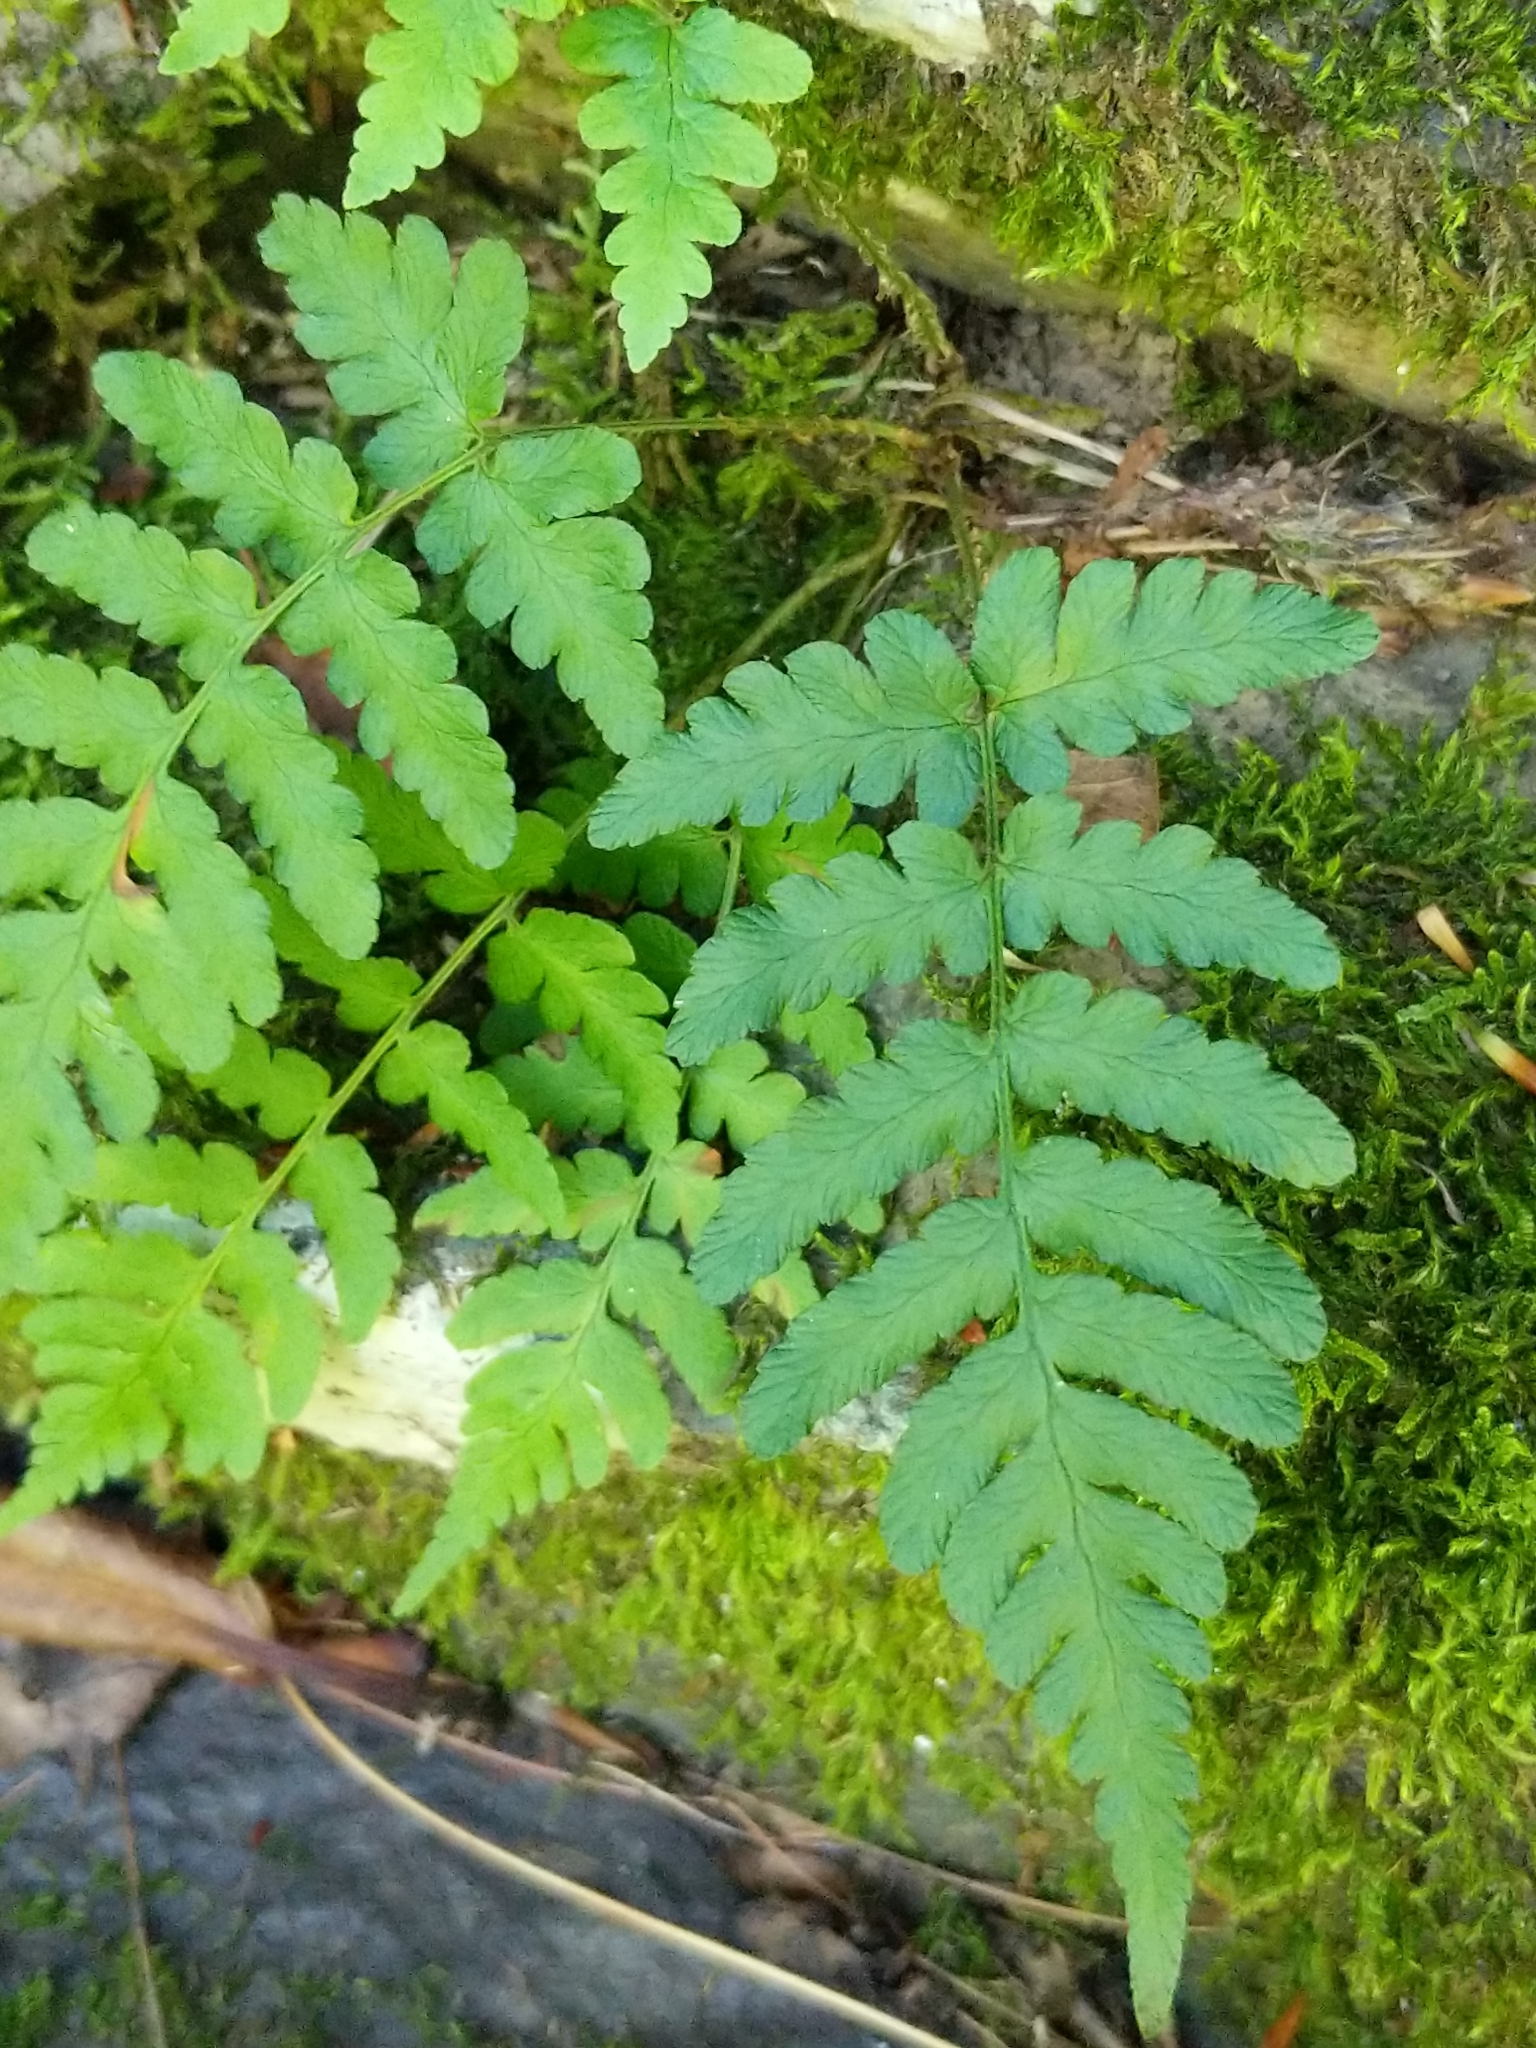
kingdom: Plantae
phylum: Tracheophyta
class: Polypodiopsida
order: Polypodiales
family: Dryopteridaceae
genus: Dryopteris
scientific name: Dryopteris marginalis
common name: Marginal wood fern
